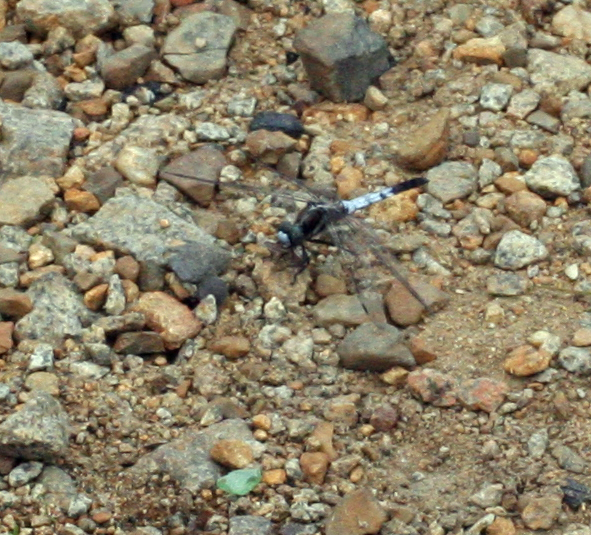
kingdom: Animalia
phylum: Arthropoda
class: Insecta
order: Odonata
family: Libellulidae
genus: Orthetrum
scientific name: Orthetrum albistylum
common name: White-tailed skimmer
